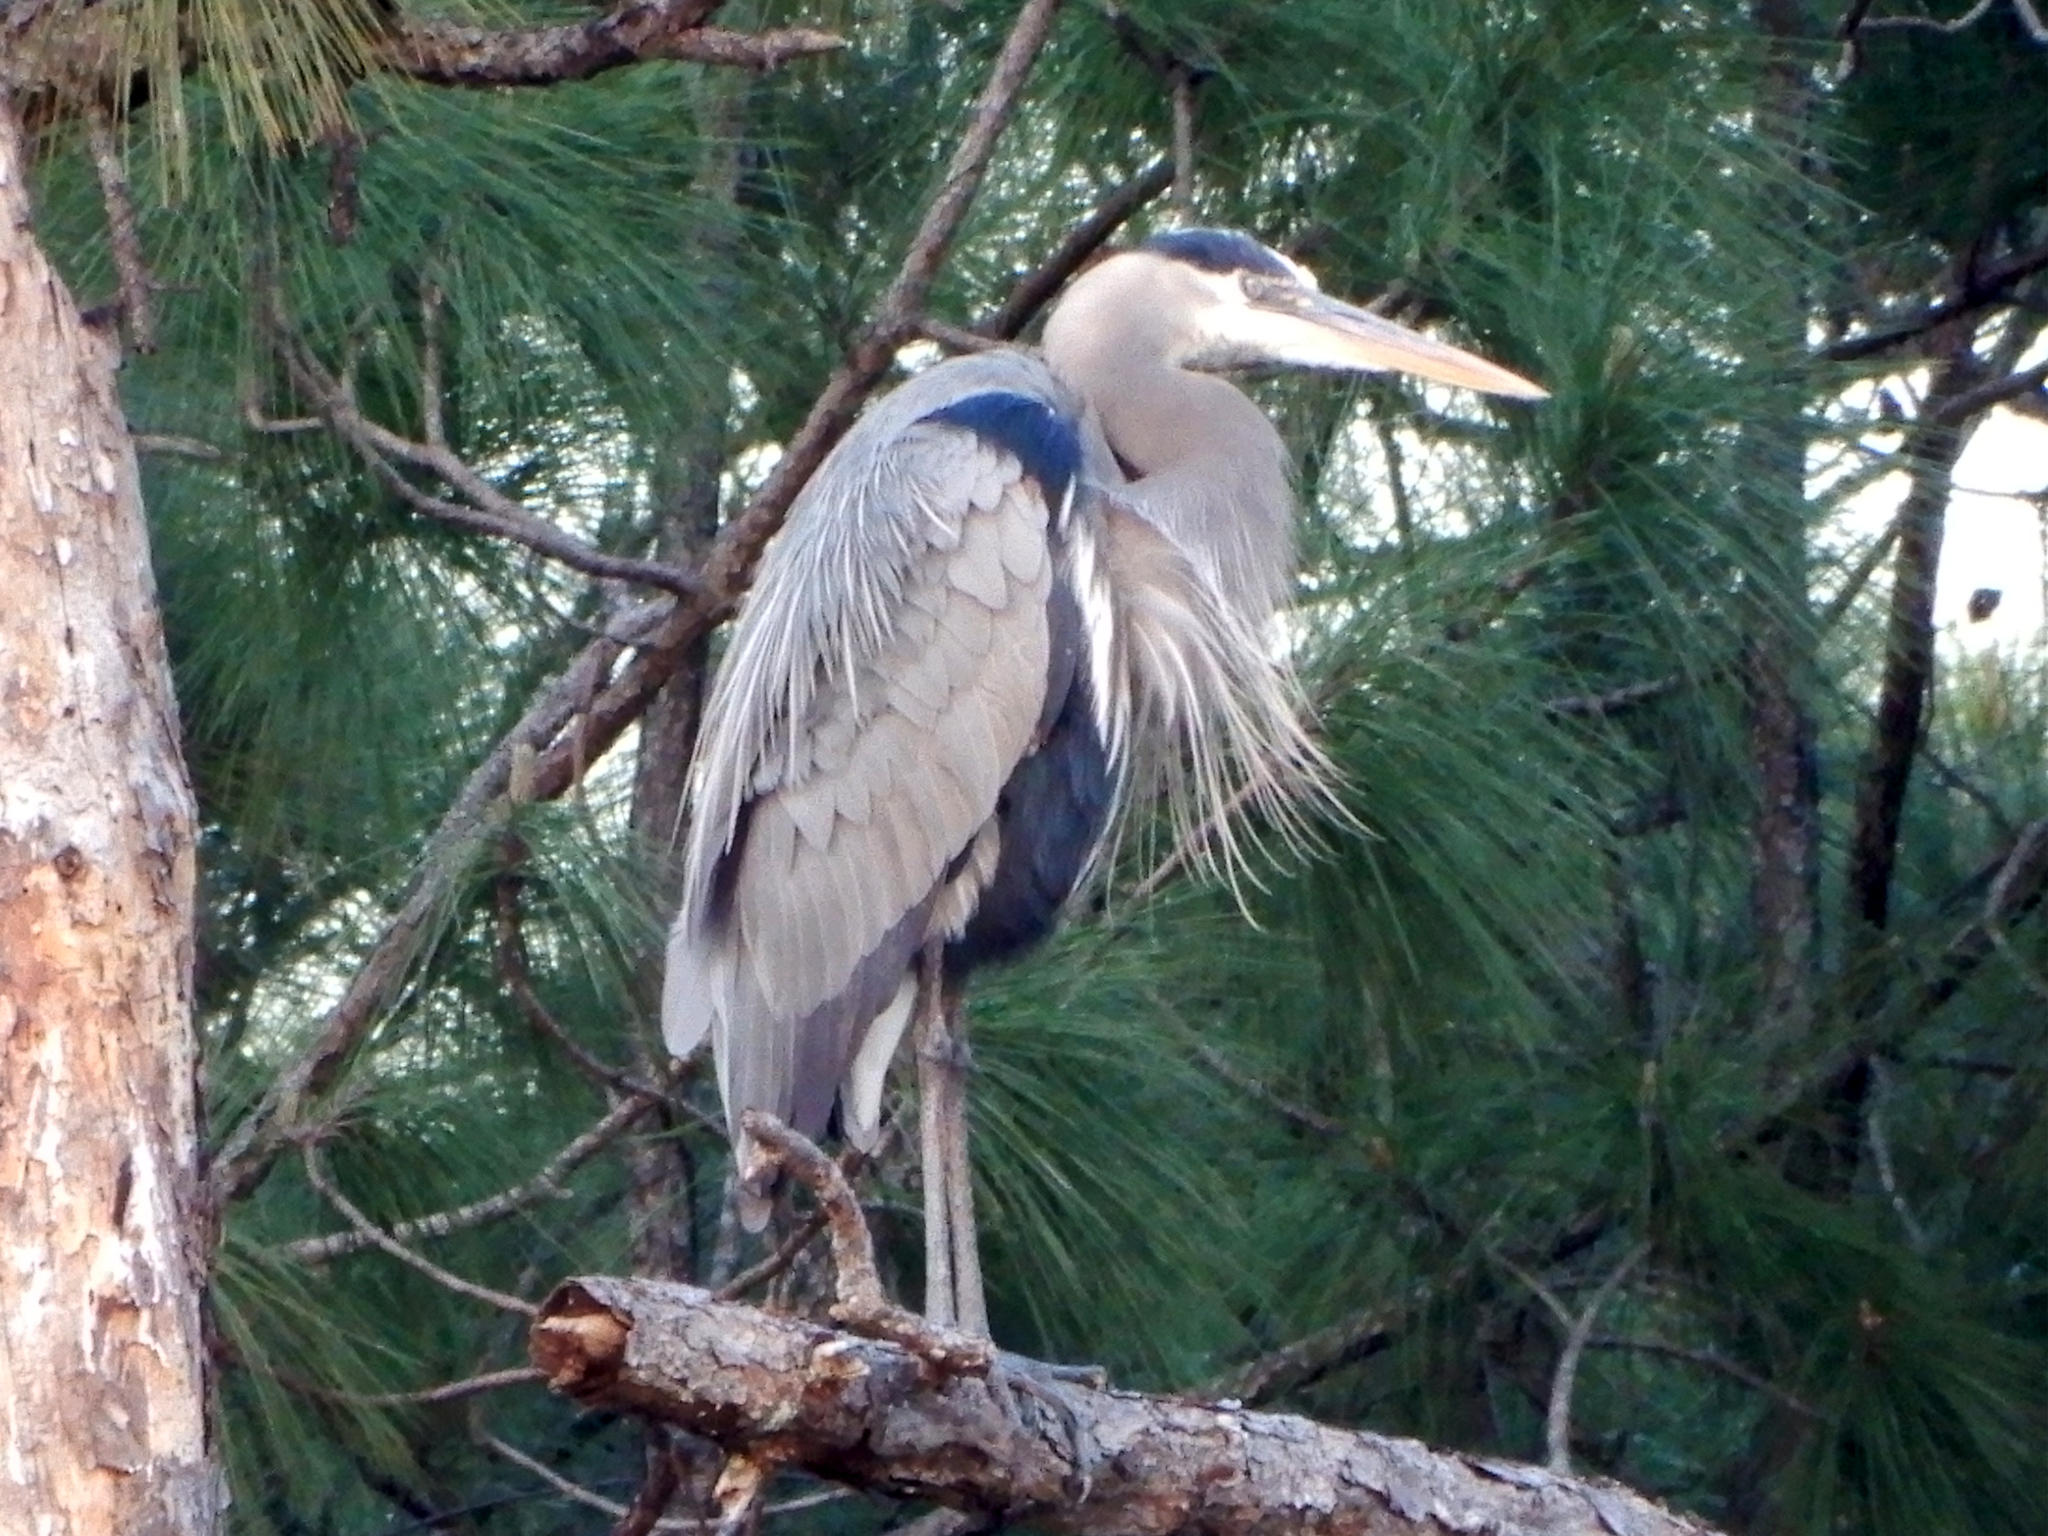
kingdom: Animalia
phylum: Chordata
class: Aves
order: Pelecaniformes
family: Ardeidae
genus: Ardea
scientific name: Ardea herodias
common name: Great blue heron
